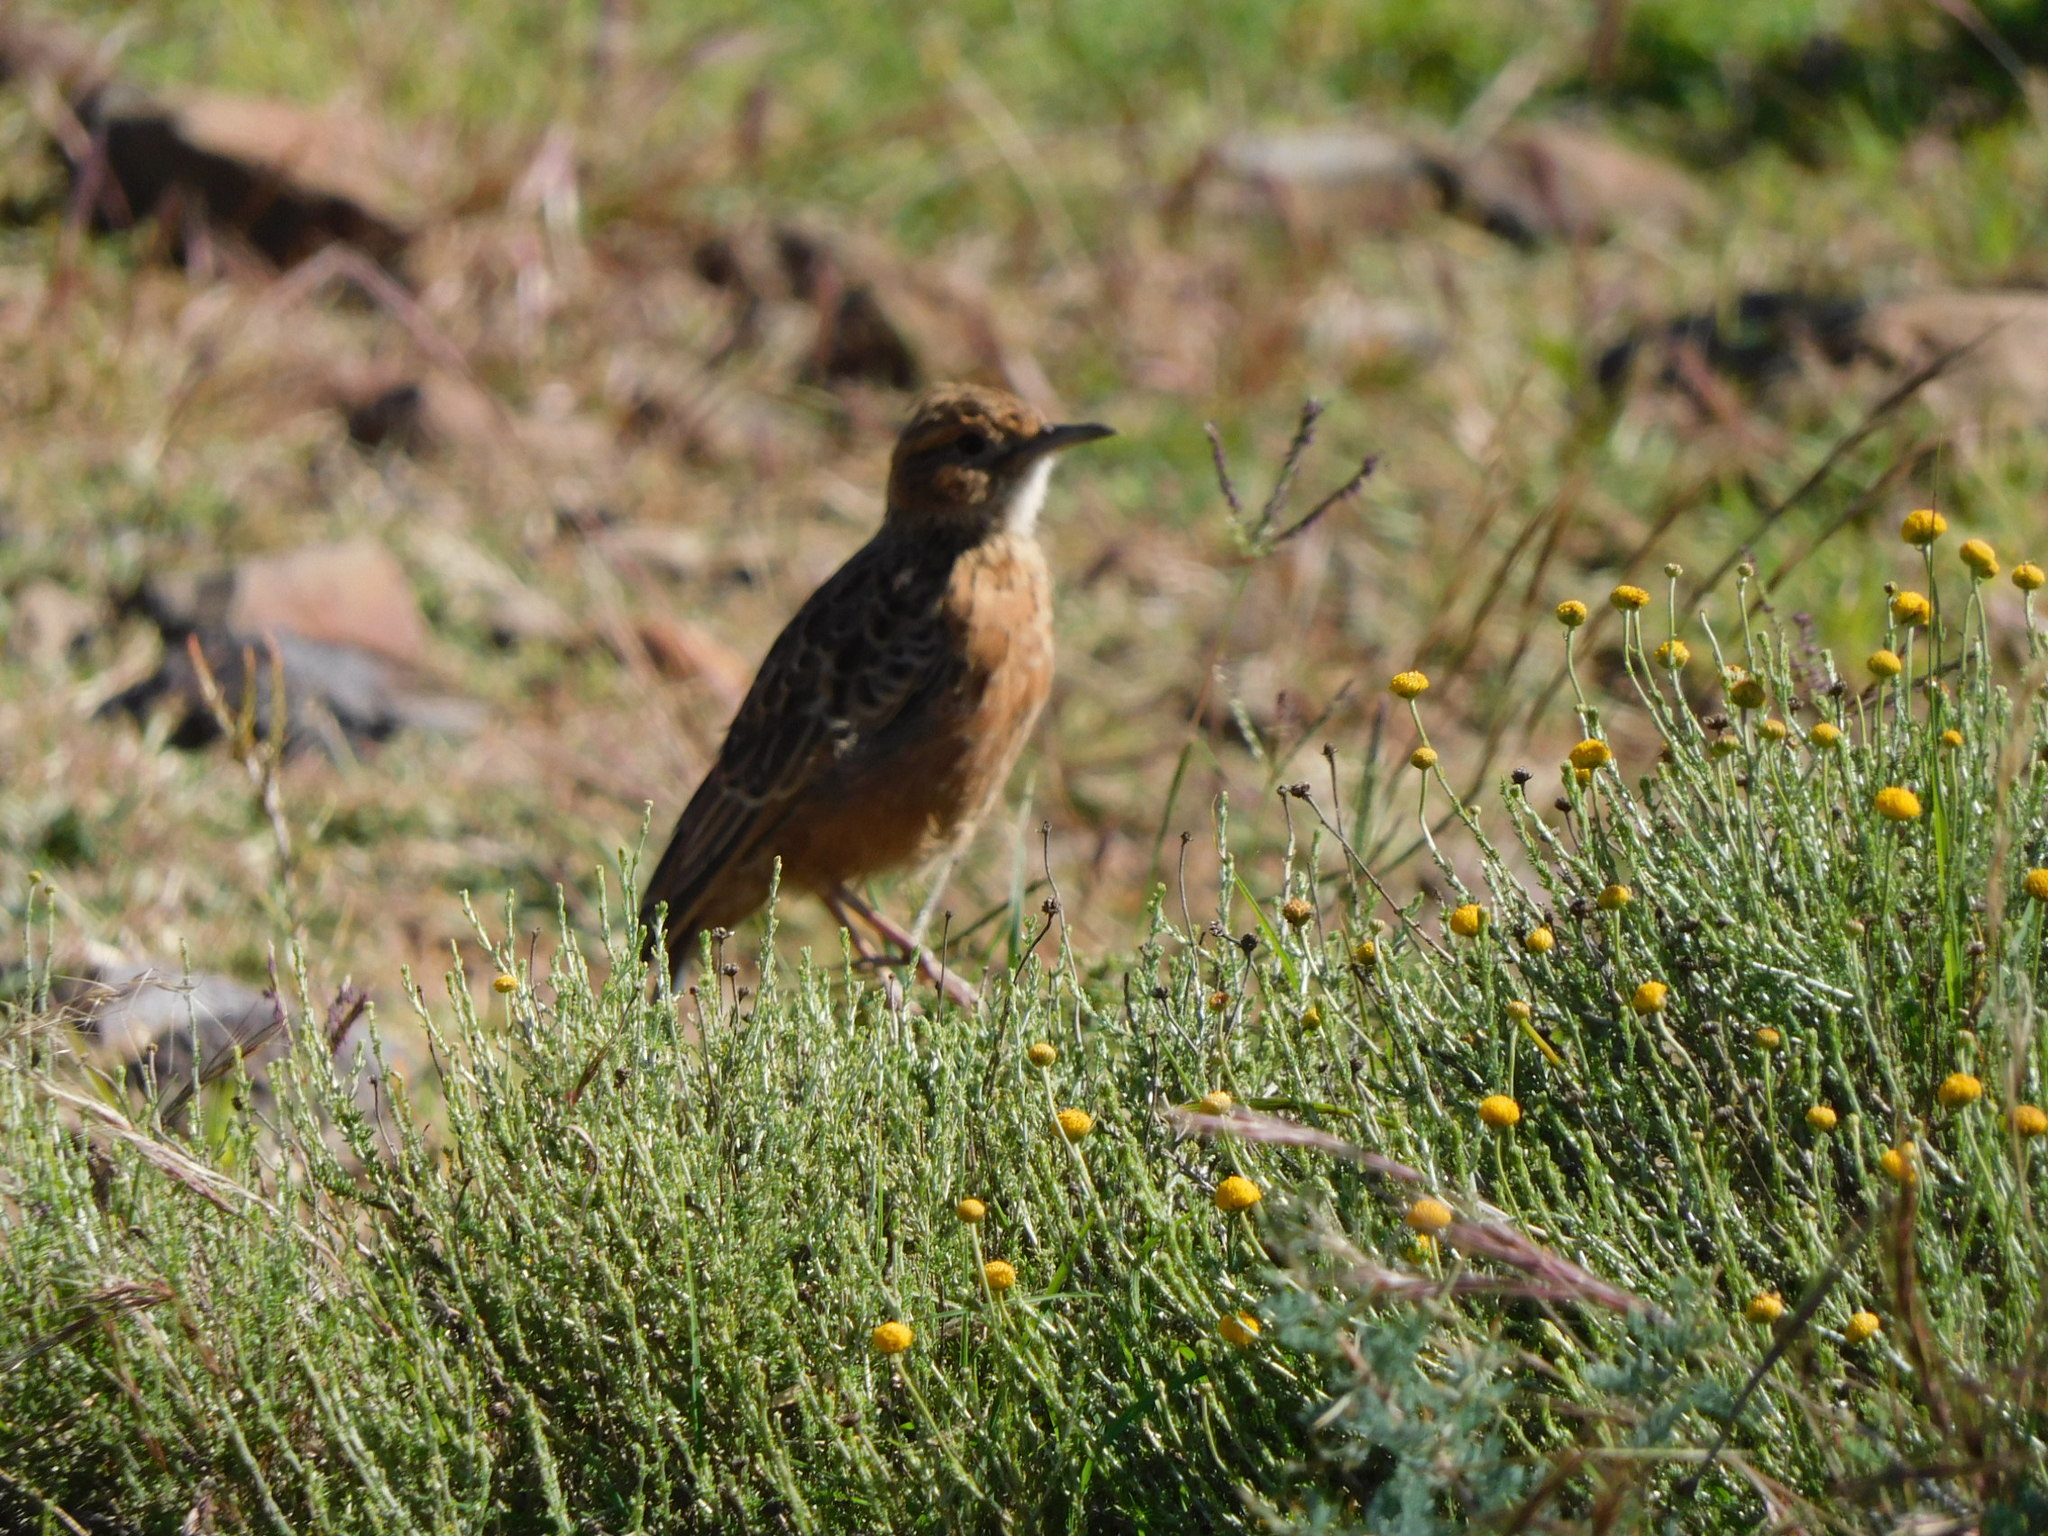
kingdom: Animalia
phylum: Chordata
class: Aves
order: Passeriformes
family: Alaudidae
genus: Chersomanes
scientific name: Chersomanes albofasciata
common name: Spike-heeled lark
